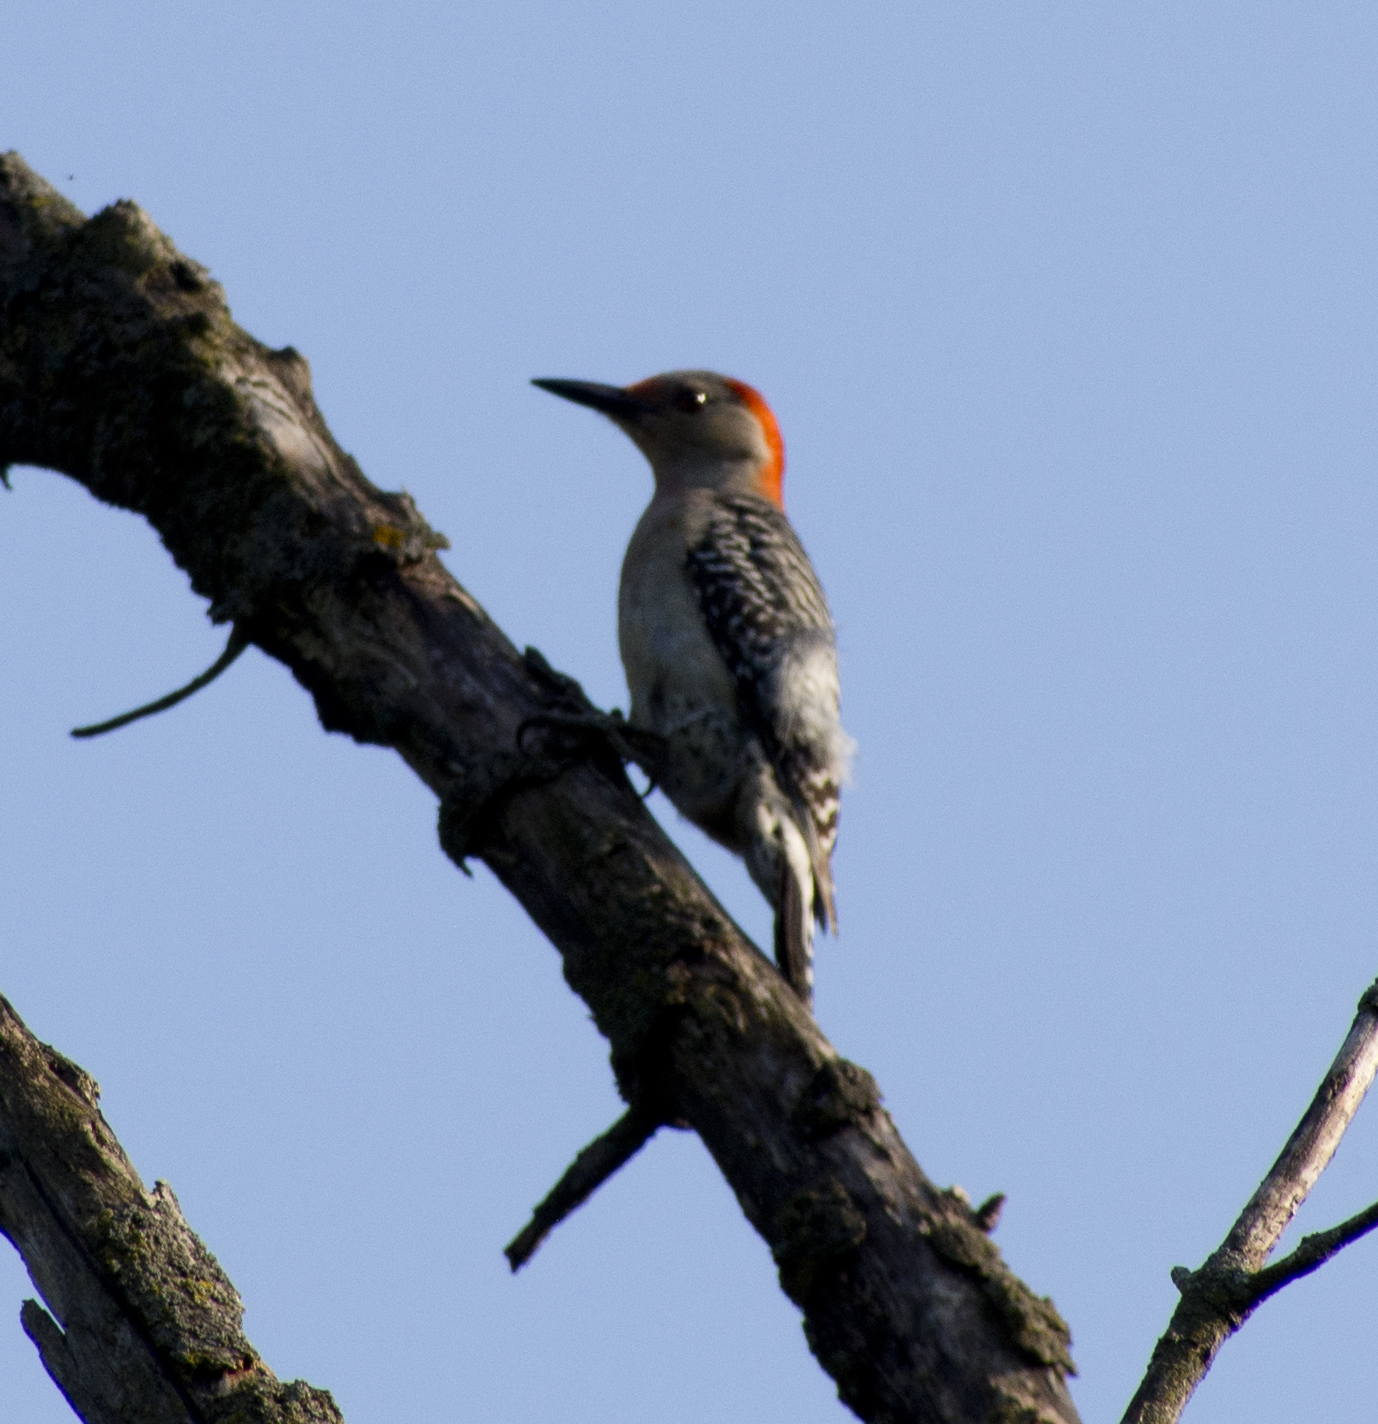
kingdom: Animalia
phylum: Chordata
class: Aves
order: Piciformes
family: Picidae
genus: Melanerpes
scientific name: Melanerpes carolinus
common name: Red-bellied woodpecker
